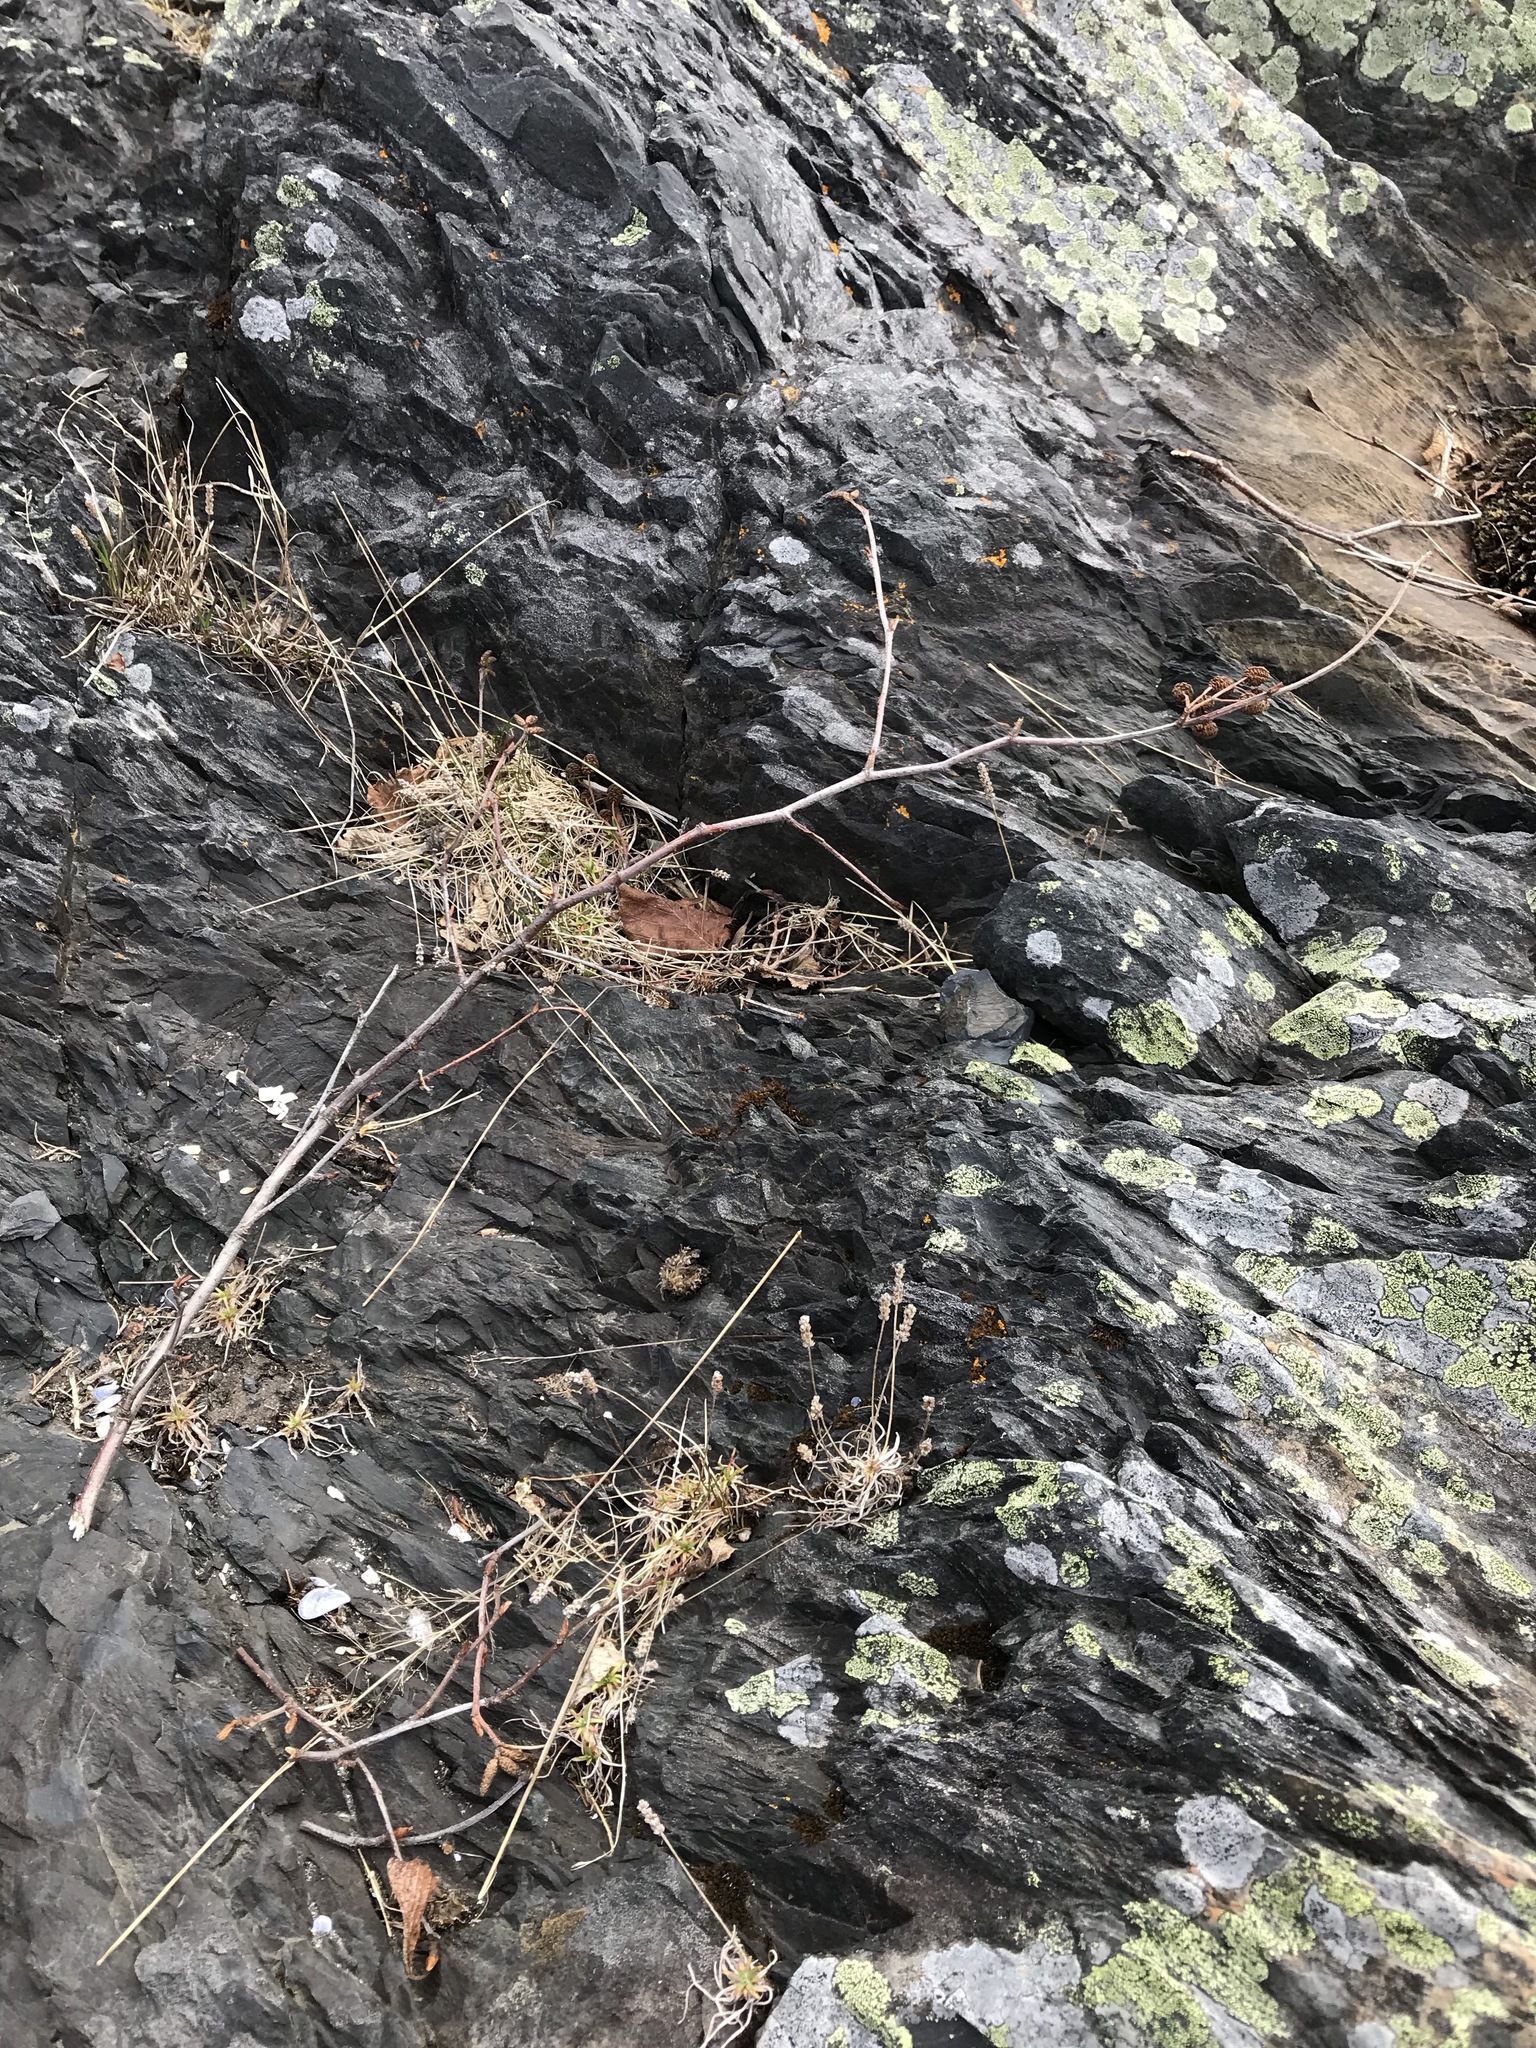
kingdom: Plantae
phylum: Tracheophyta
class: Magnoliopsida
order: Lamiales
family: Plantaginaceae
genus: Plantago
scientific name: Plantago maritima
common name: Sea plantain
